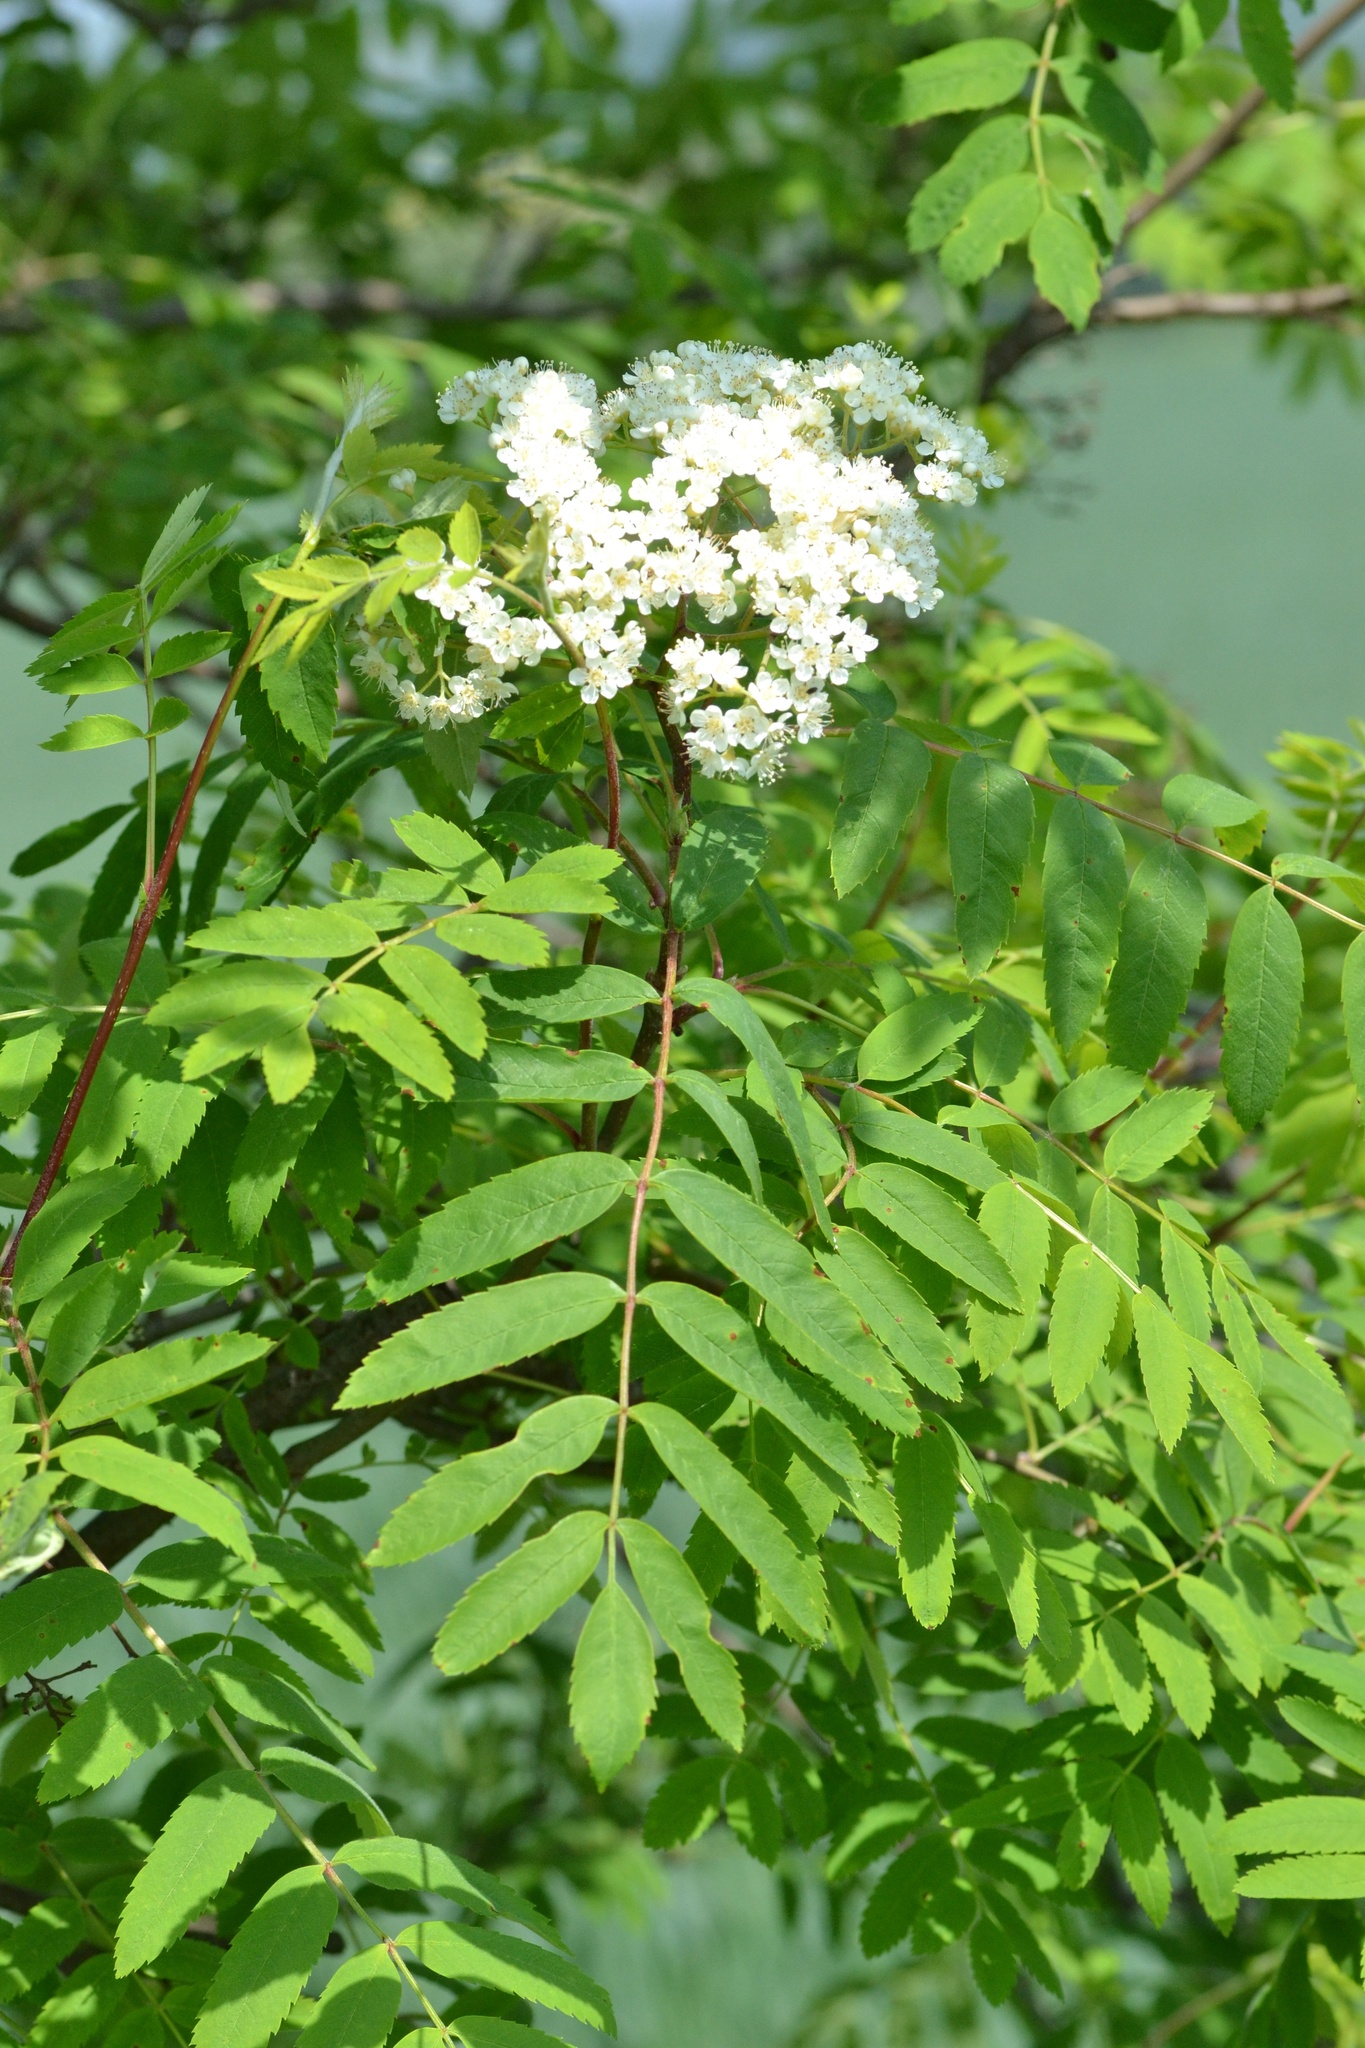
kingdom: Plantae
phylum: Tracheophyta
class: Magnoliopsida
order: Rosales
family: Rosaceae
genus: Sorbus
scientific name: Sorbus aucuparia
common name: Rowan
